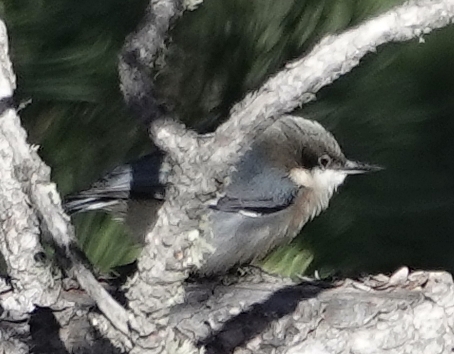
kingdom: Animalia
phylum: Chordata
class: Aves
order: Passeriformes
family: Sittidae
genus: Sitta
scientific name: Sitta pygmaea
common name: Pygmy nuthatch
